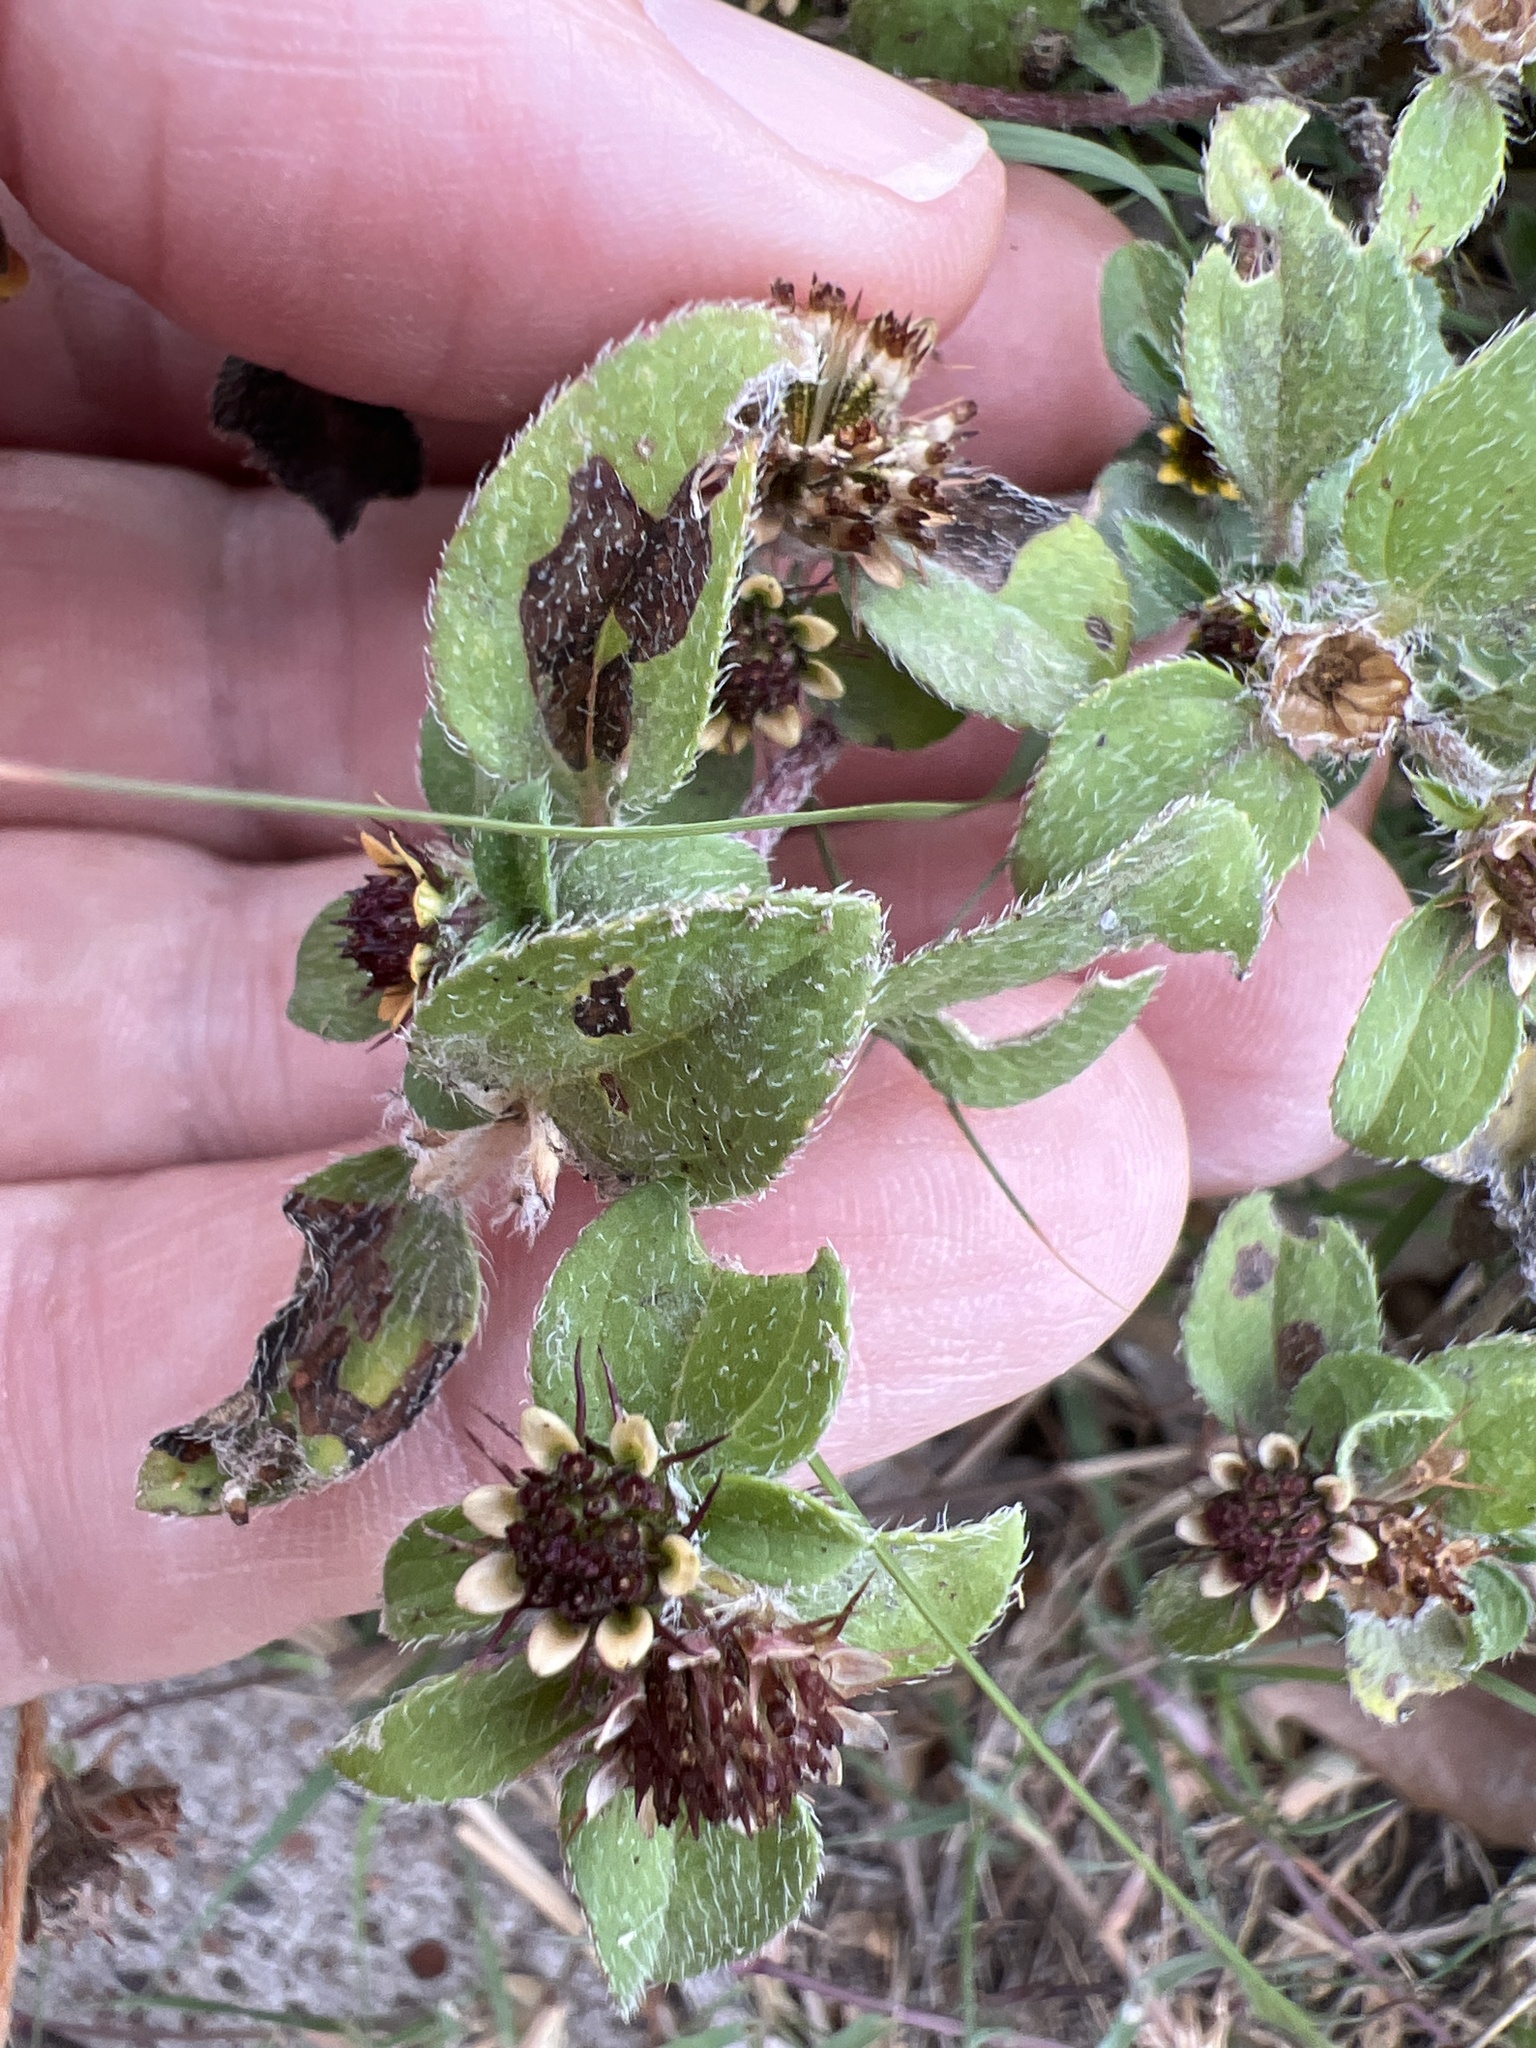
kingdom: Plantae
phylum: Tracheophyta
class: Magnoliopsida
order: Asterales
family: Asteraceae
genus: Sanvitalia
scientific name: Sanvitalia ocymoides
